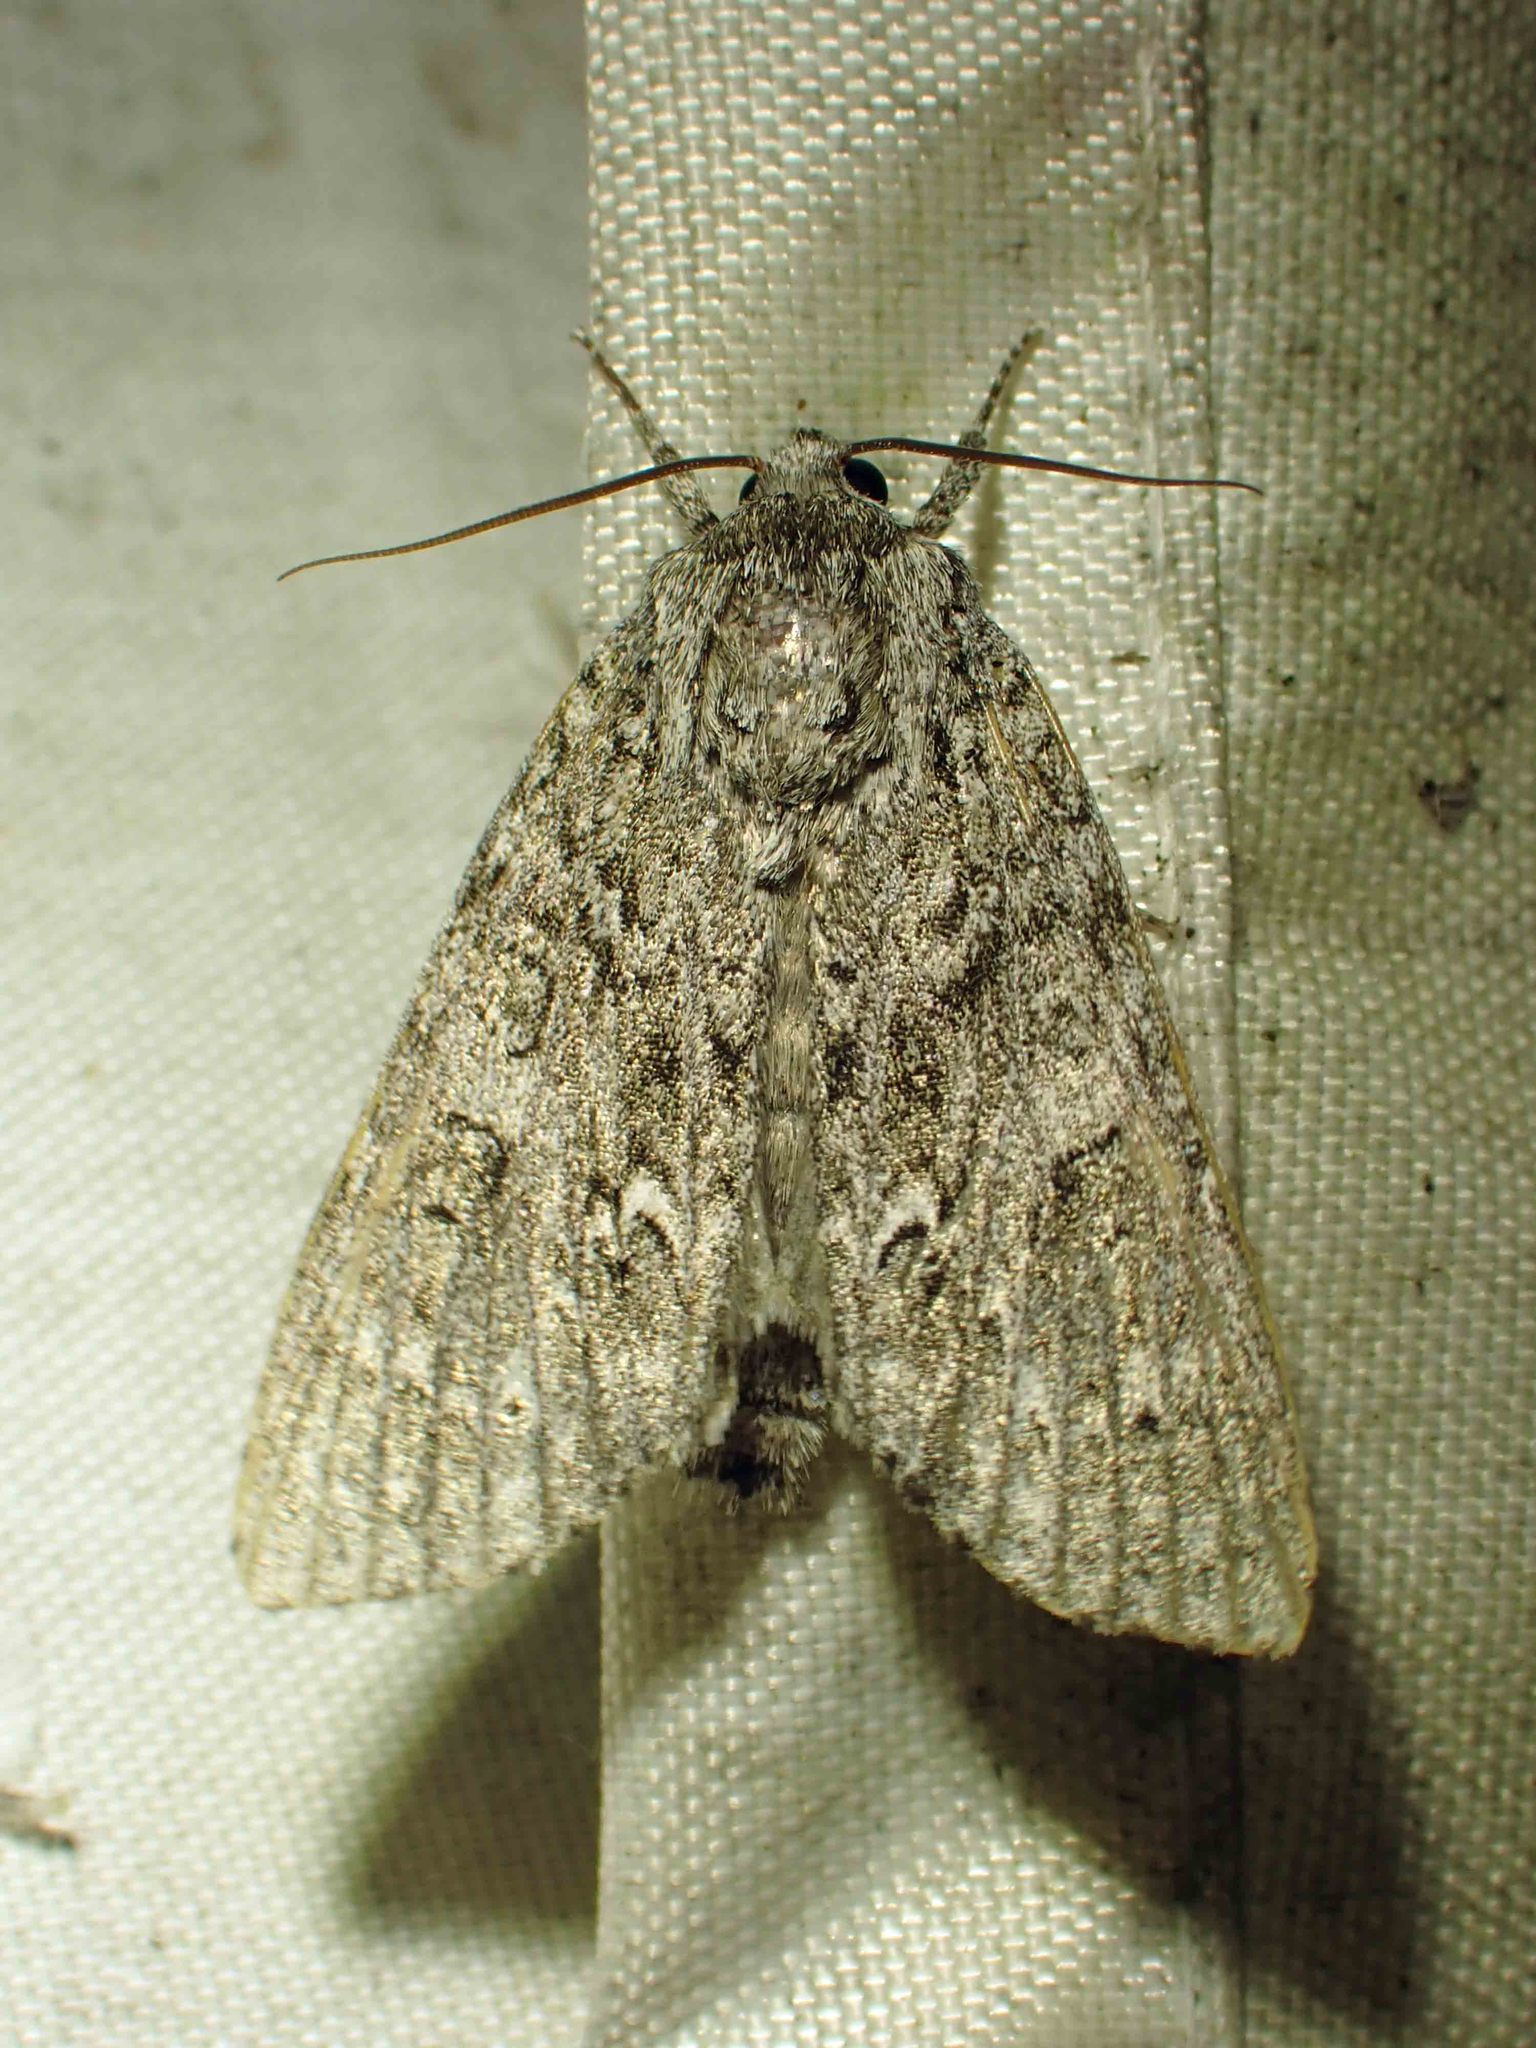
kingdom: Animalia
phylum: Arthropoda
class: Insecta
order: Lepidoptera
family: Noctuidae
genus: Acronicta
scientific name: Acronicta impleta
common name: Powdered dagger
